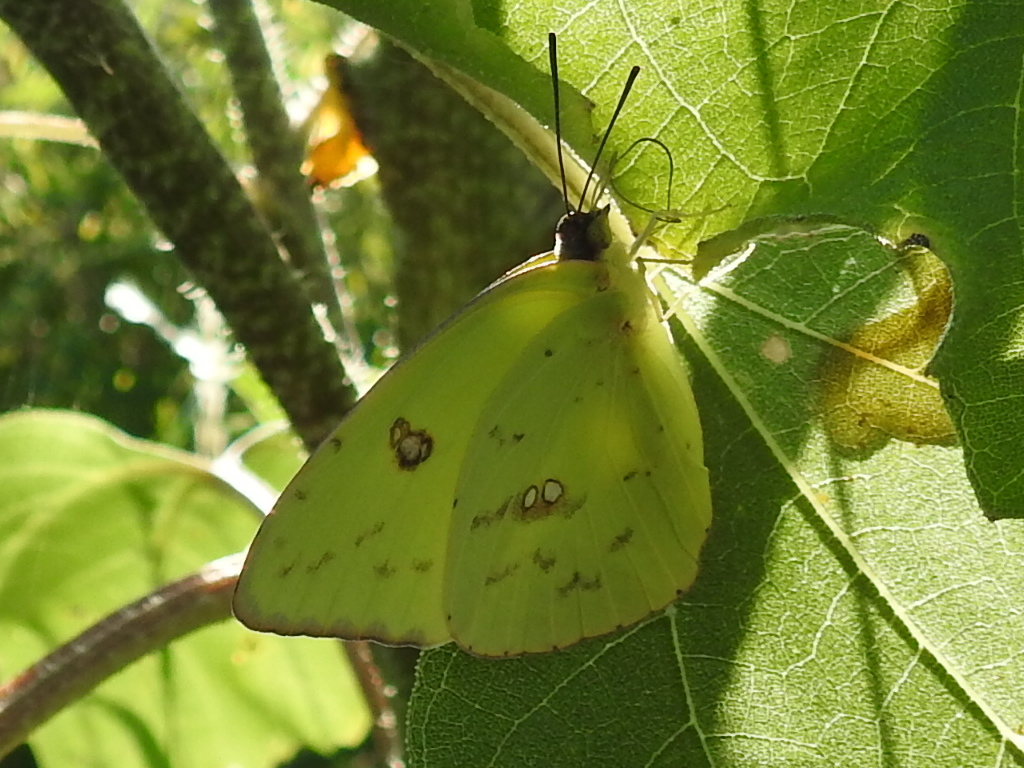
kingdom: Animalia
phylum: Arthropoda
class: Insecta
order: Lepidoptera
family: Pieridae
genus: Phoebis
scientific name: Phoebis sennae
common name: Cloudless sulphur
